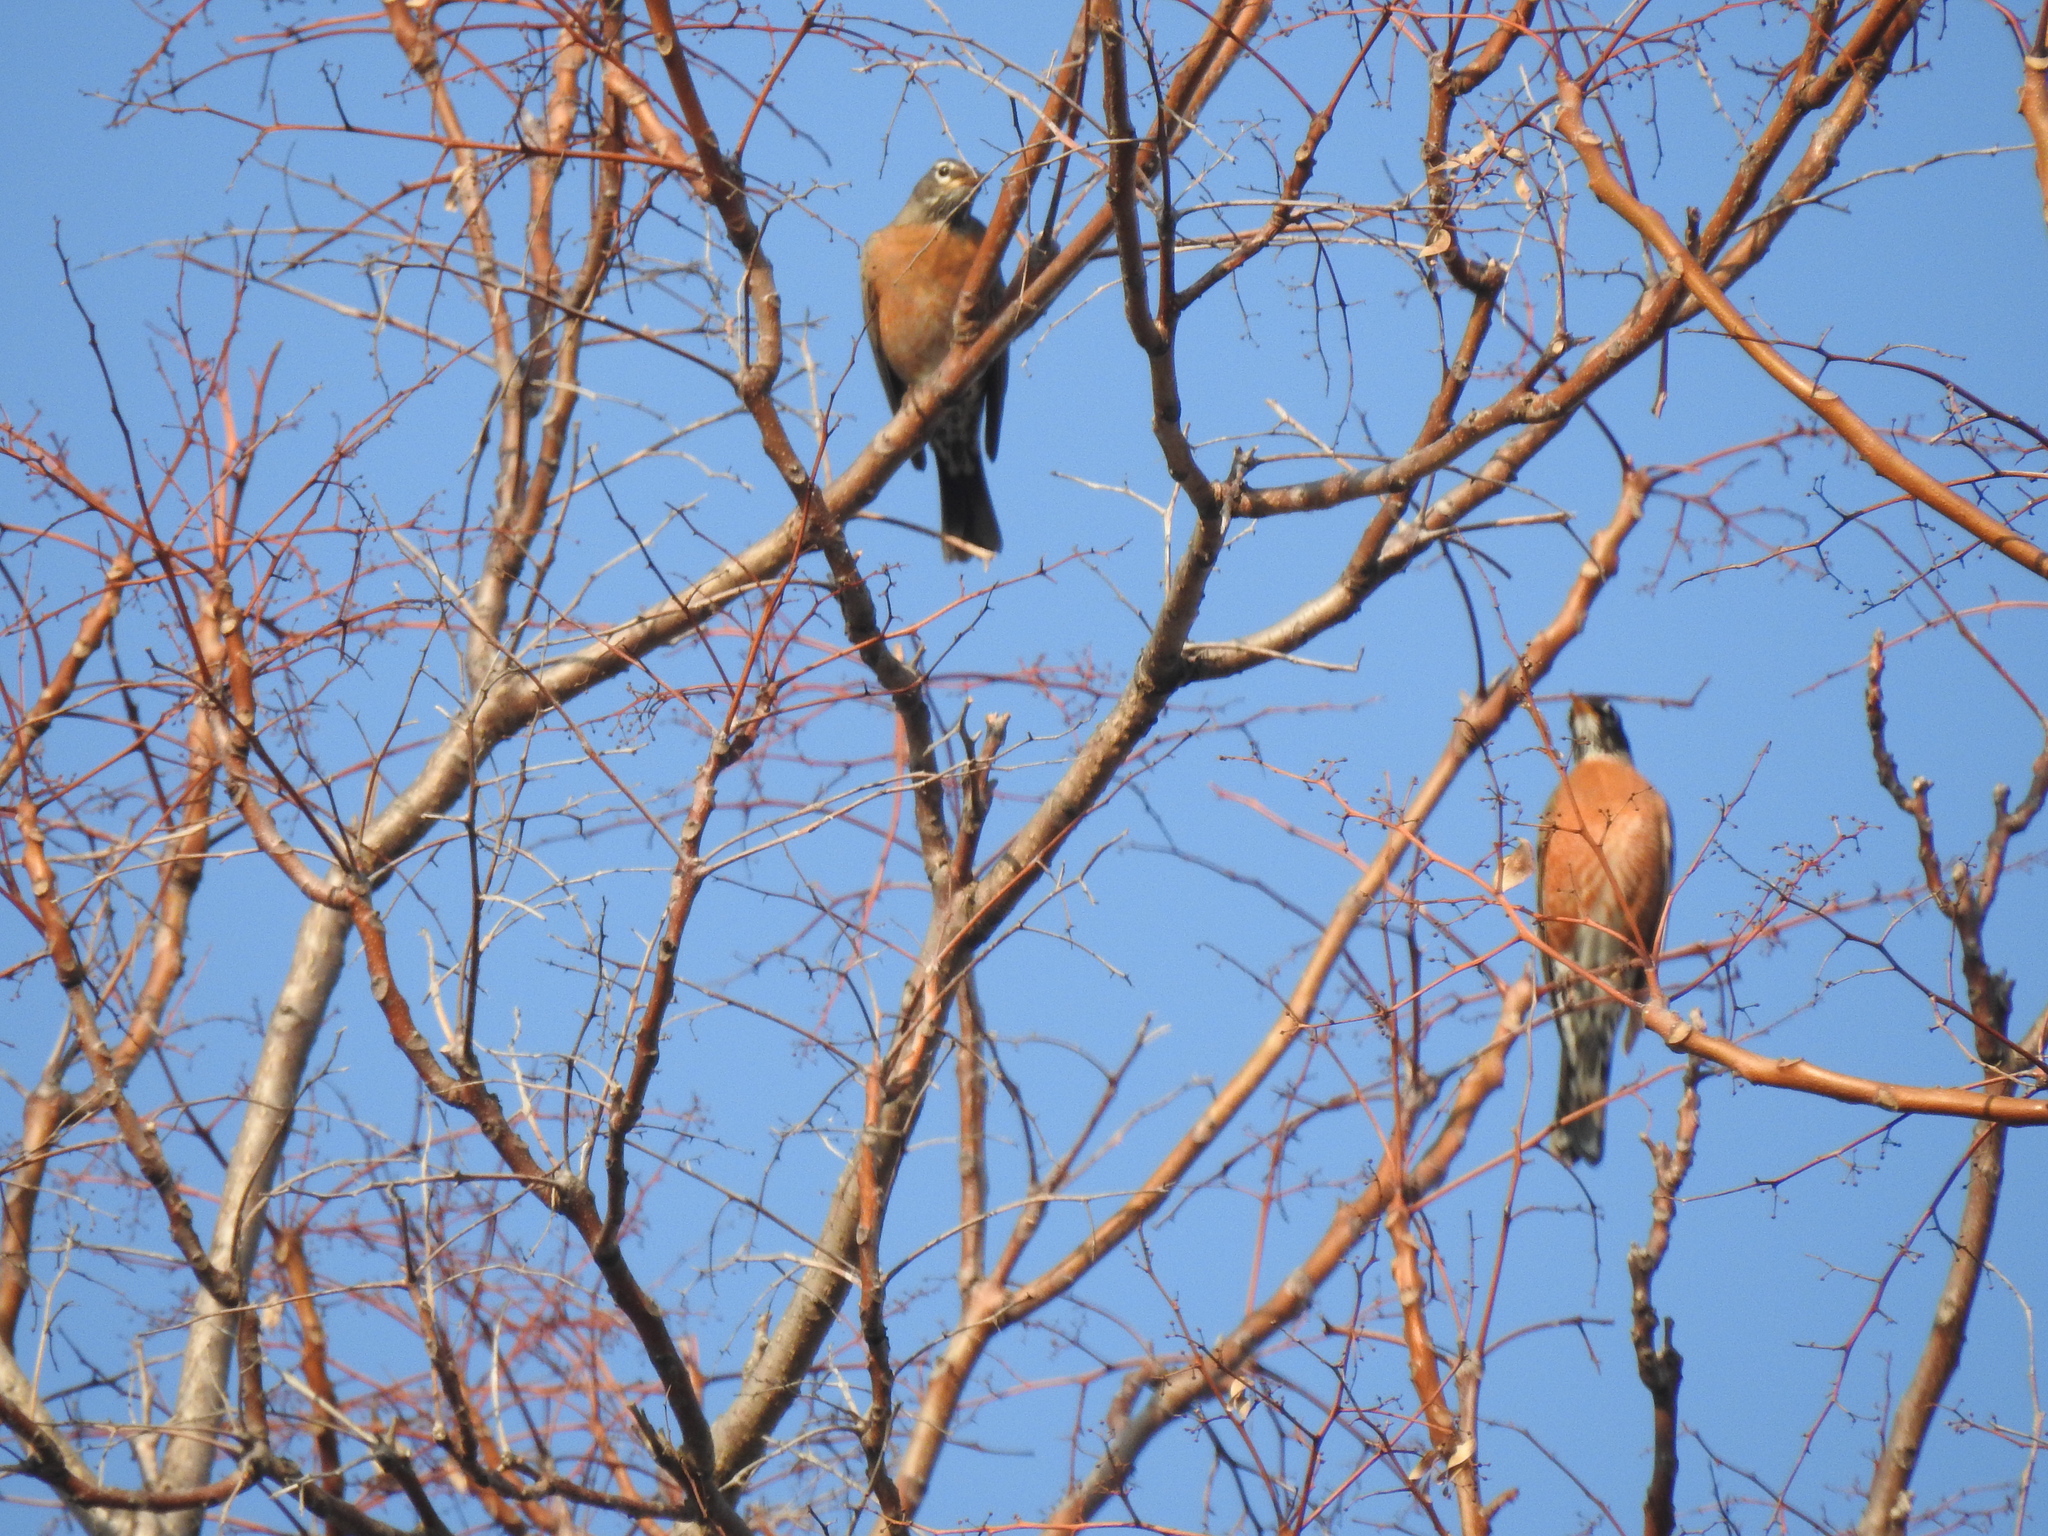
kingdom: Animalia
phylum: Chordata
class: Aves
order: Passeriformes
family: Turdidae
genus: Turdus
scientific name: Turdus migratorius
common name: American robin
